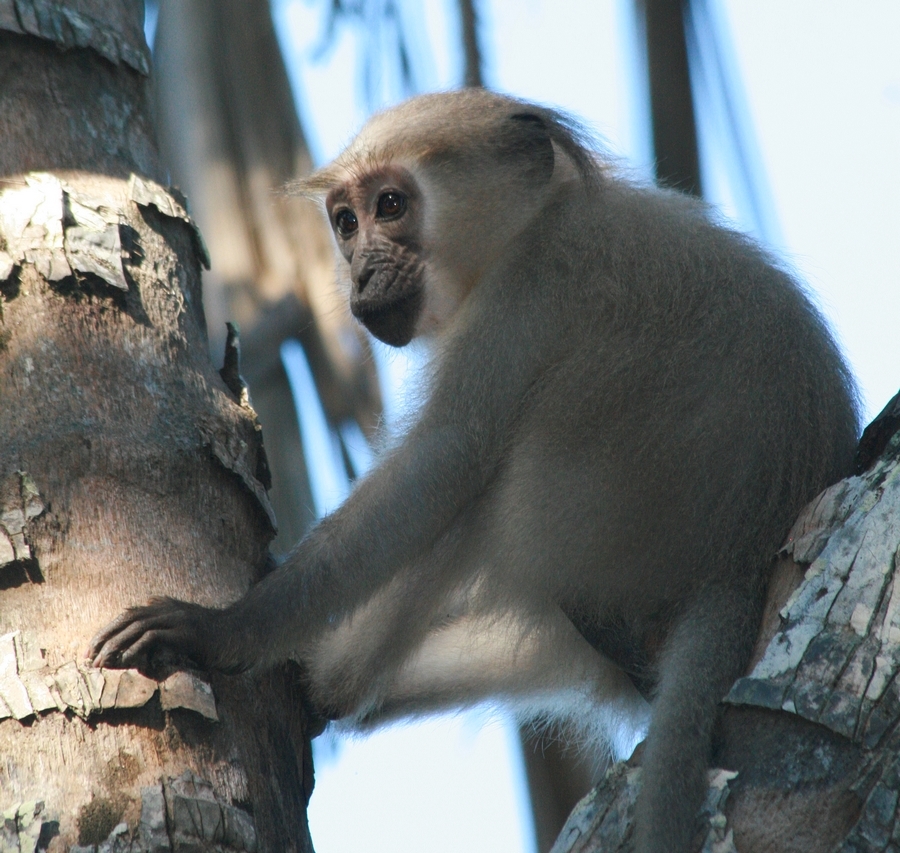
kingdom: Animalia
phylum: Chordata
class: Mammalia
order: Primates
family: Cercopithecidae
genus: Cercocebus
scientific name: Cercocebus galeritus
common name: Tana river mangabey
